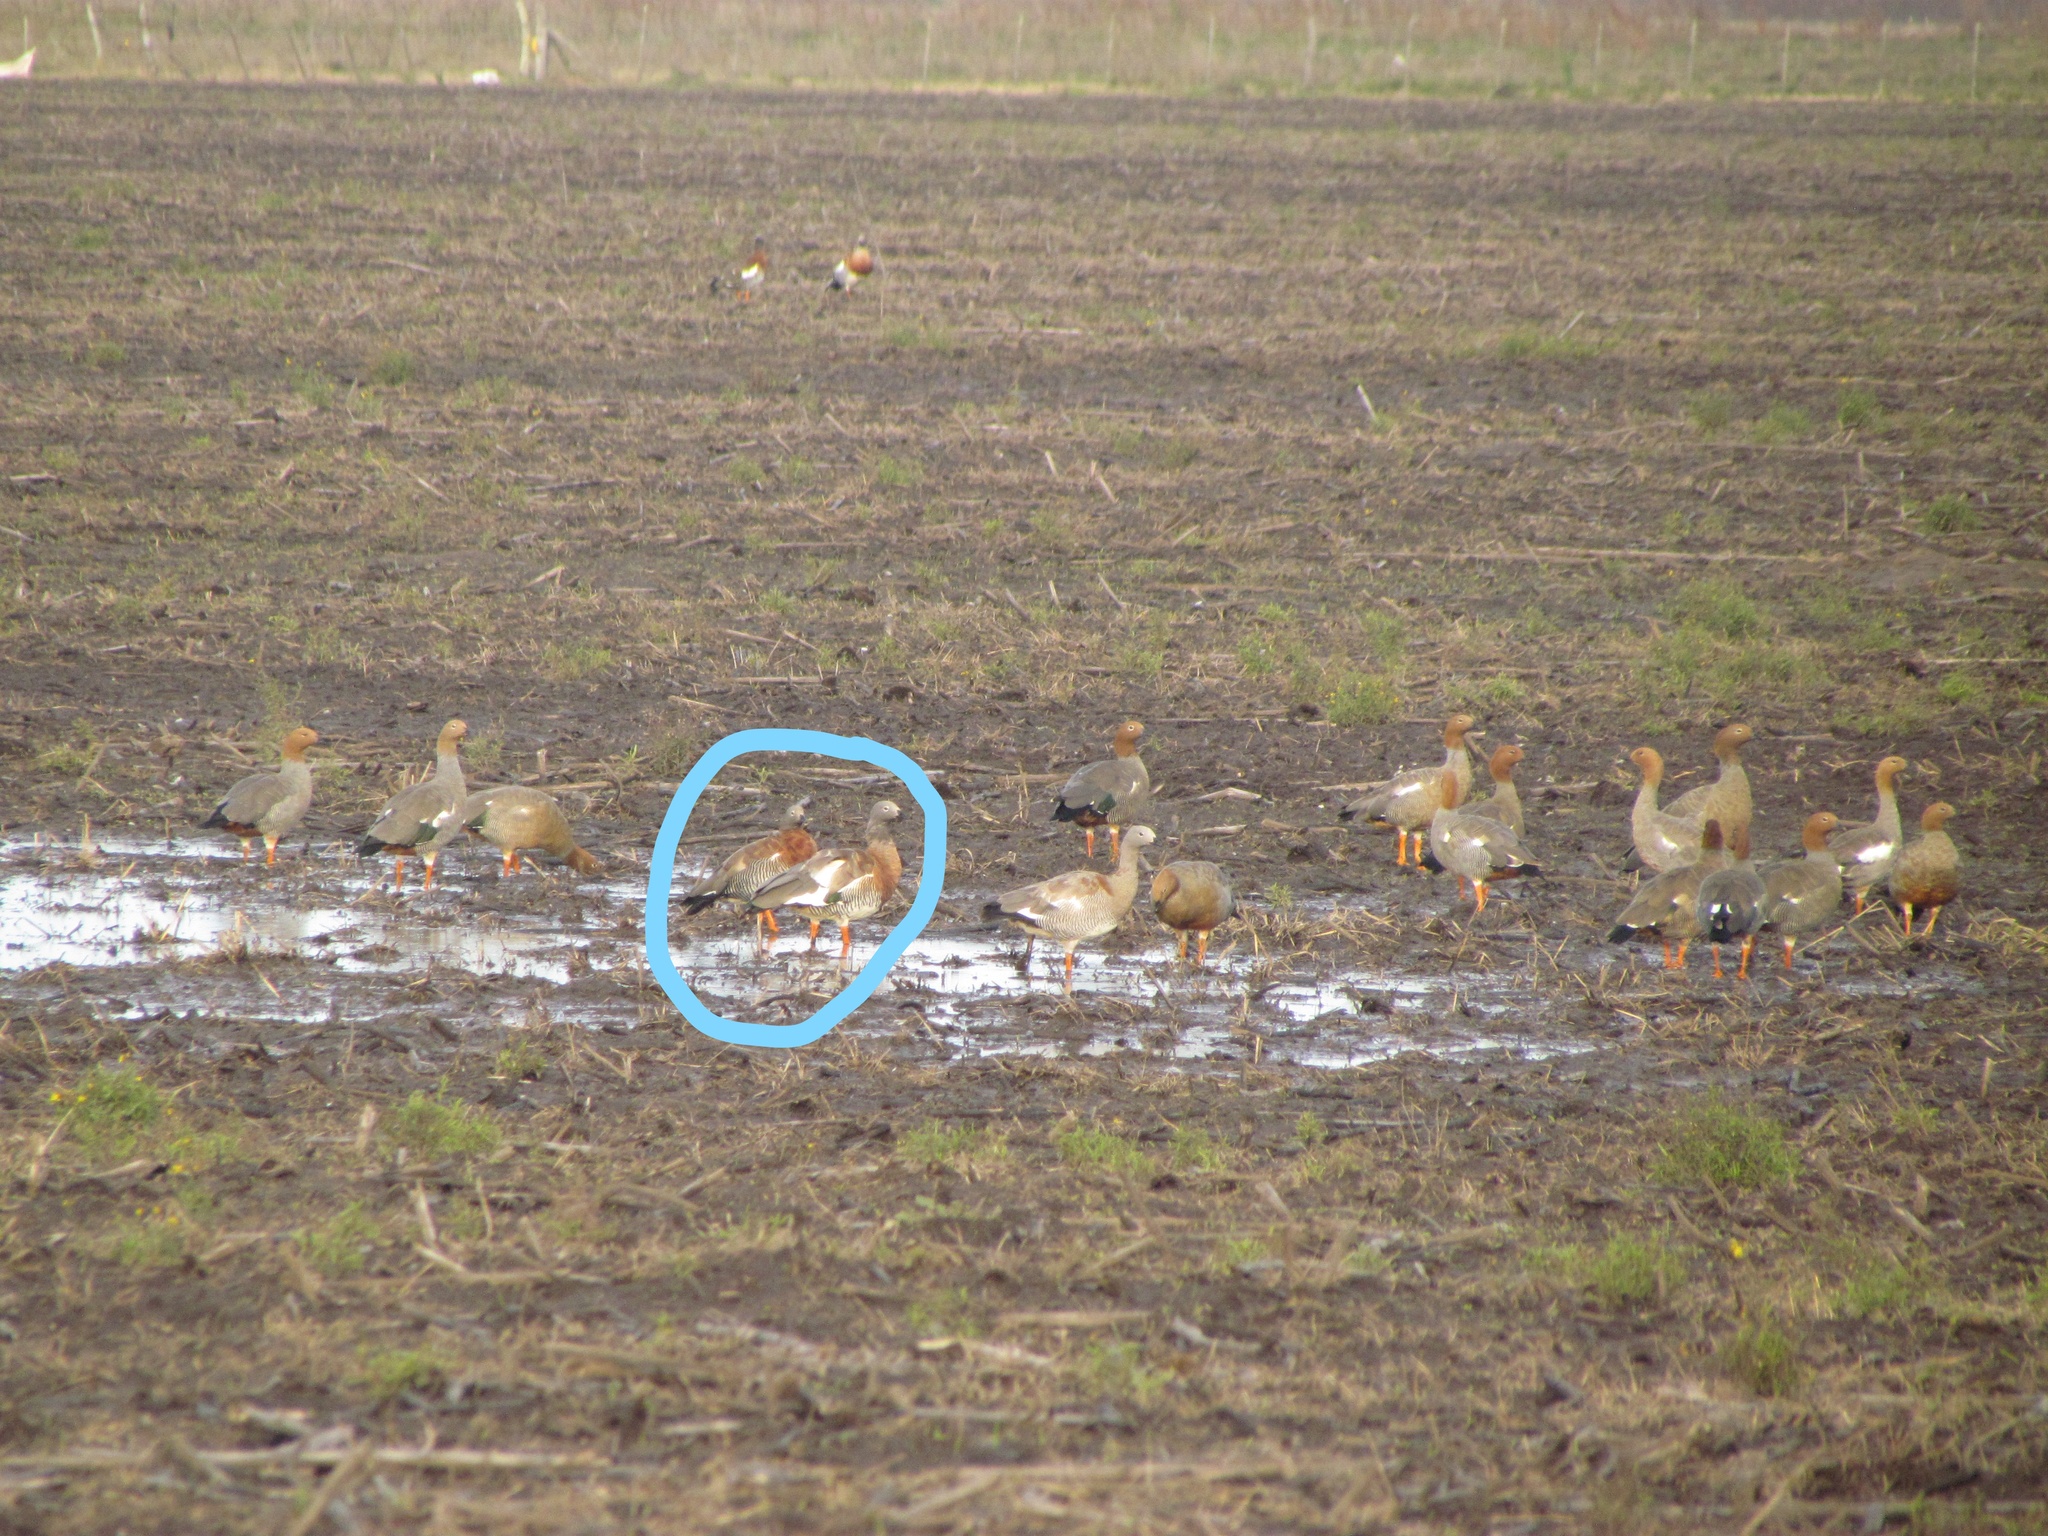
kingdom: Animalia
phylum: Chordata
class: Aves
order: Anseriformes
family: Anatidae
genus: Chloephaga
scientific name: Chloephaga poliocephala
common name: Ashy-headed goose
